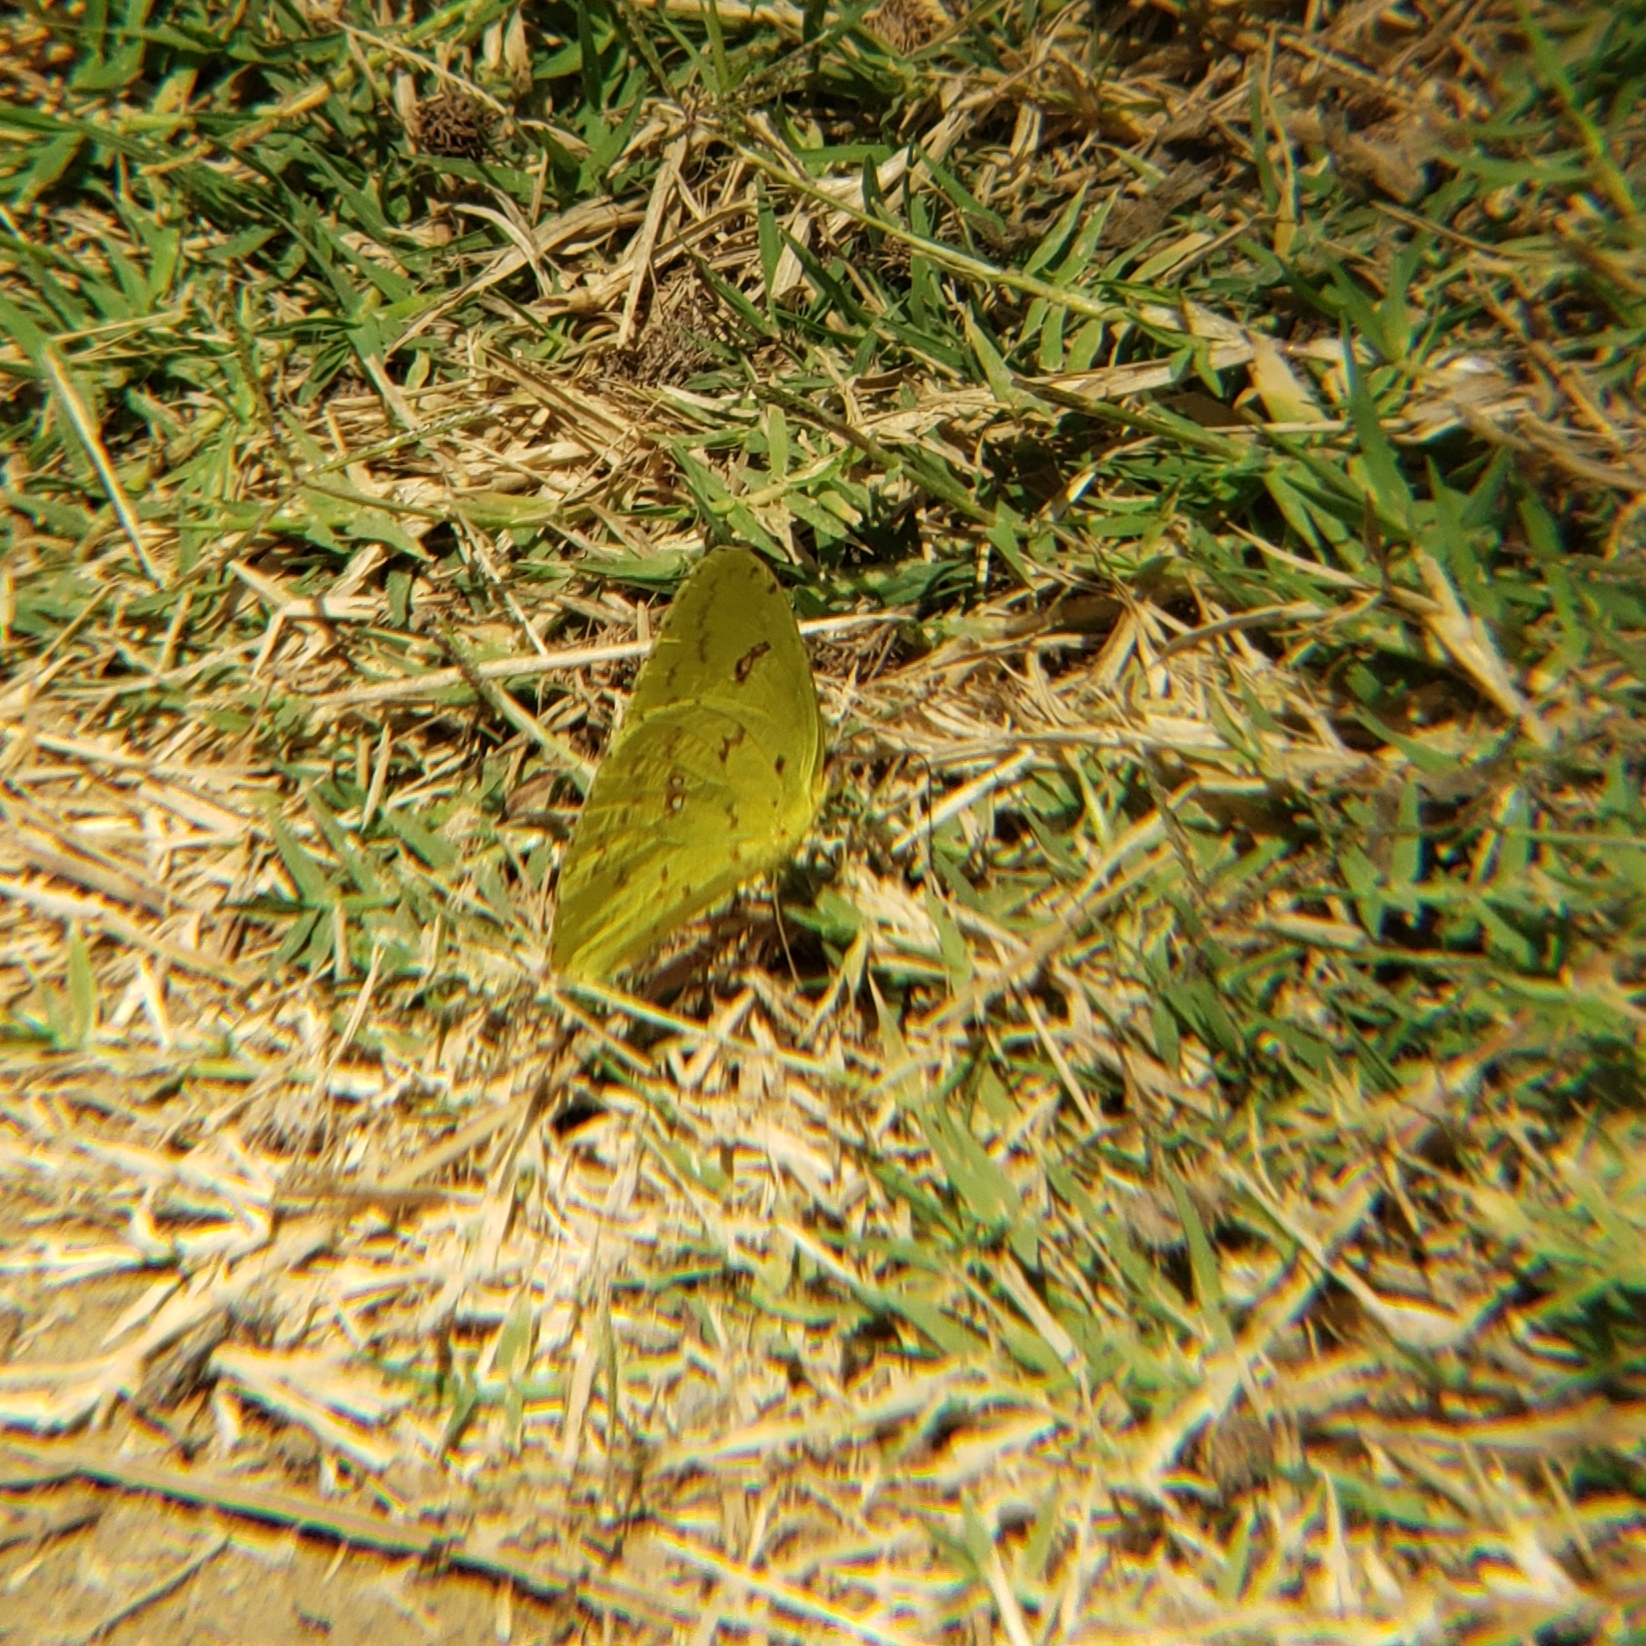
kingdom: Animalia
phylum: Arthropoda
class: Insecta
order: Lepidoptera
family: Pieridae
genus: Phoebis
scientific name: Phoebis marcellina
